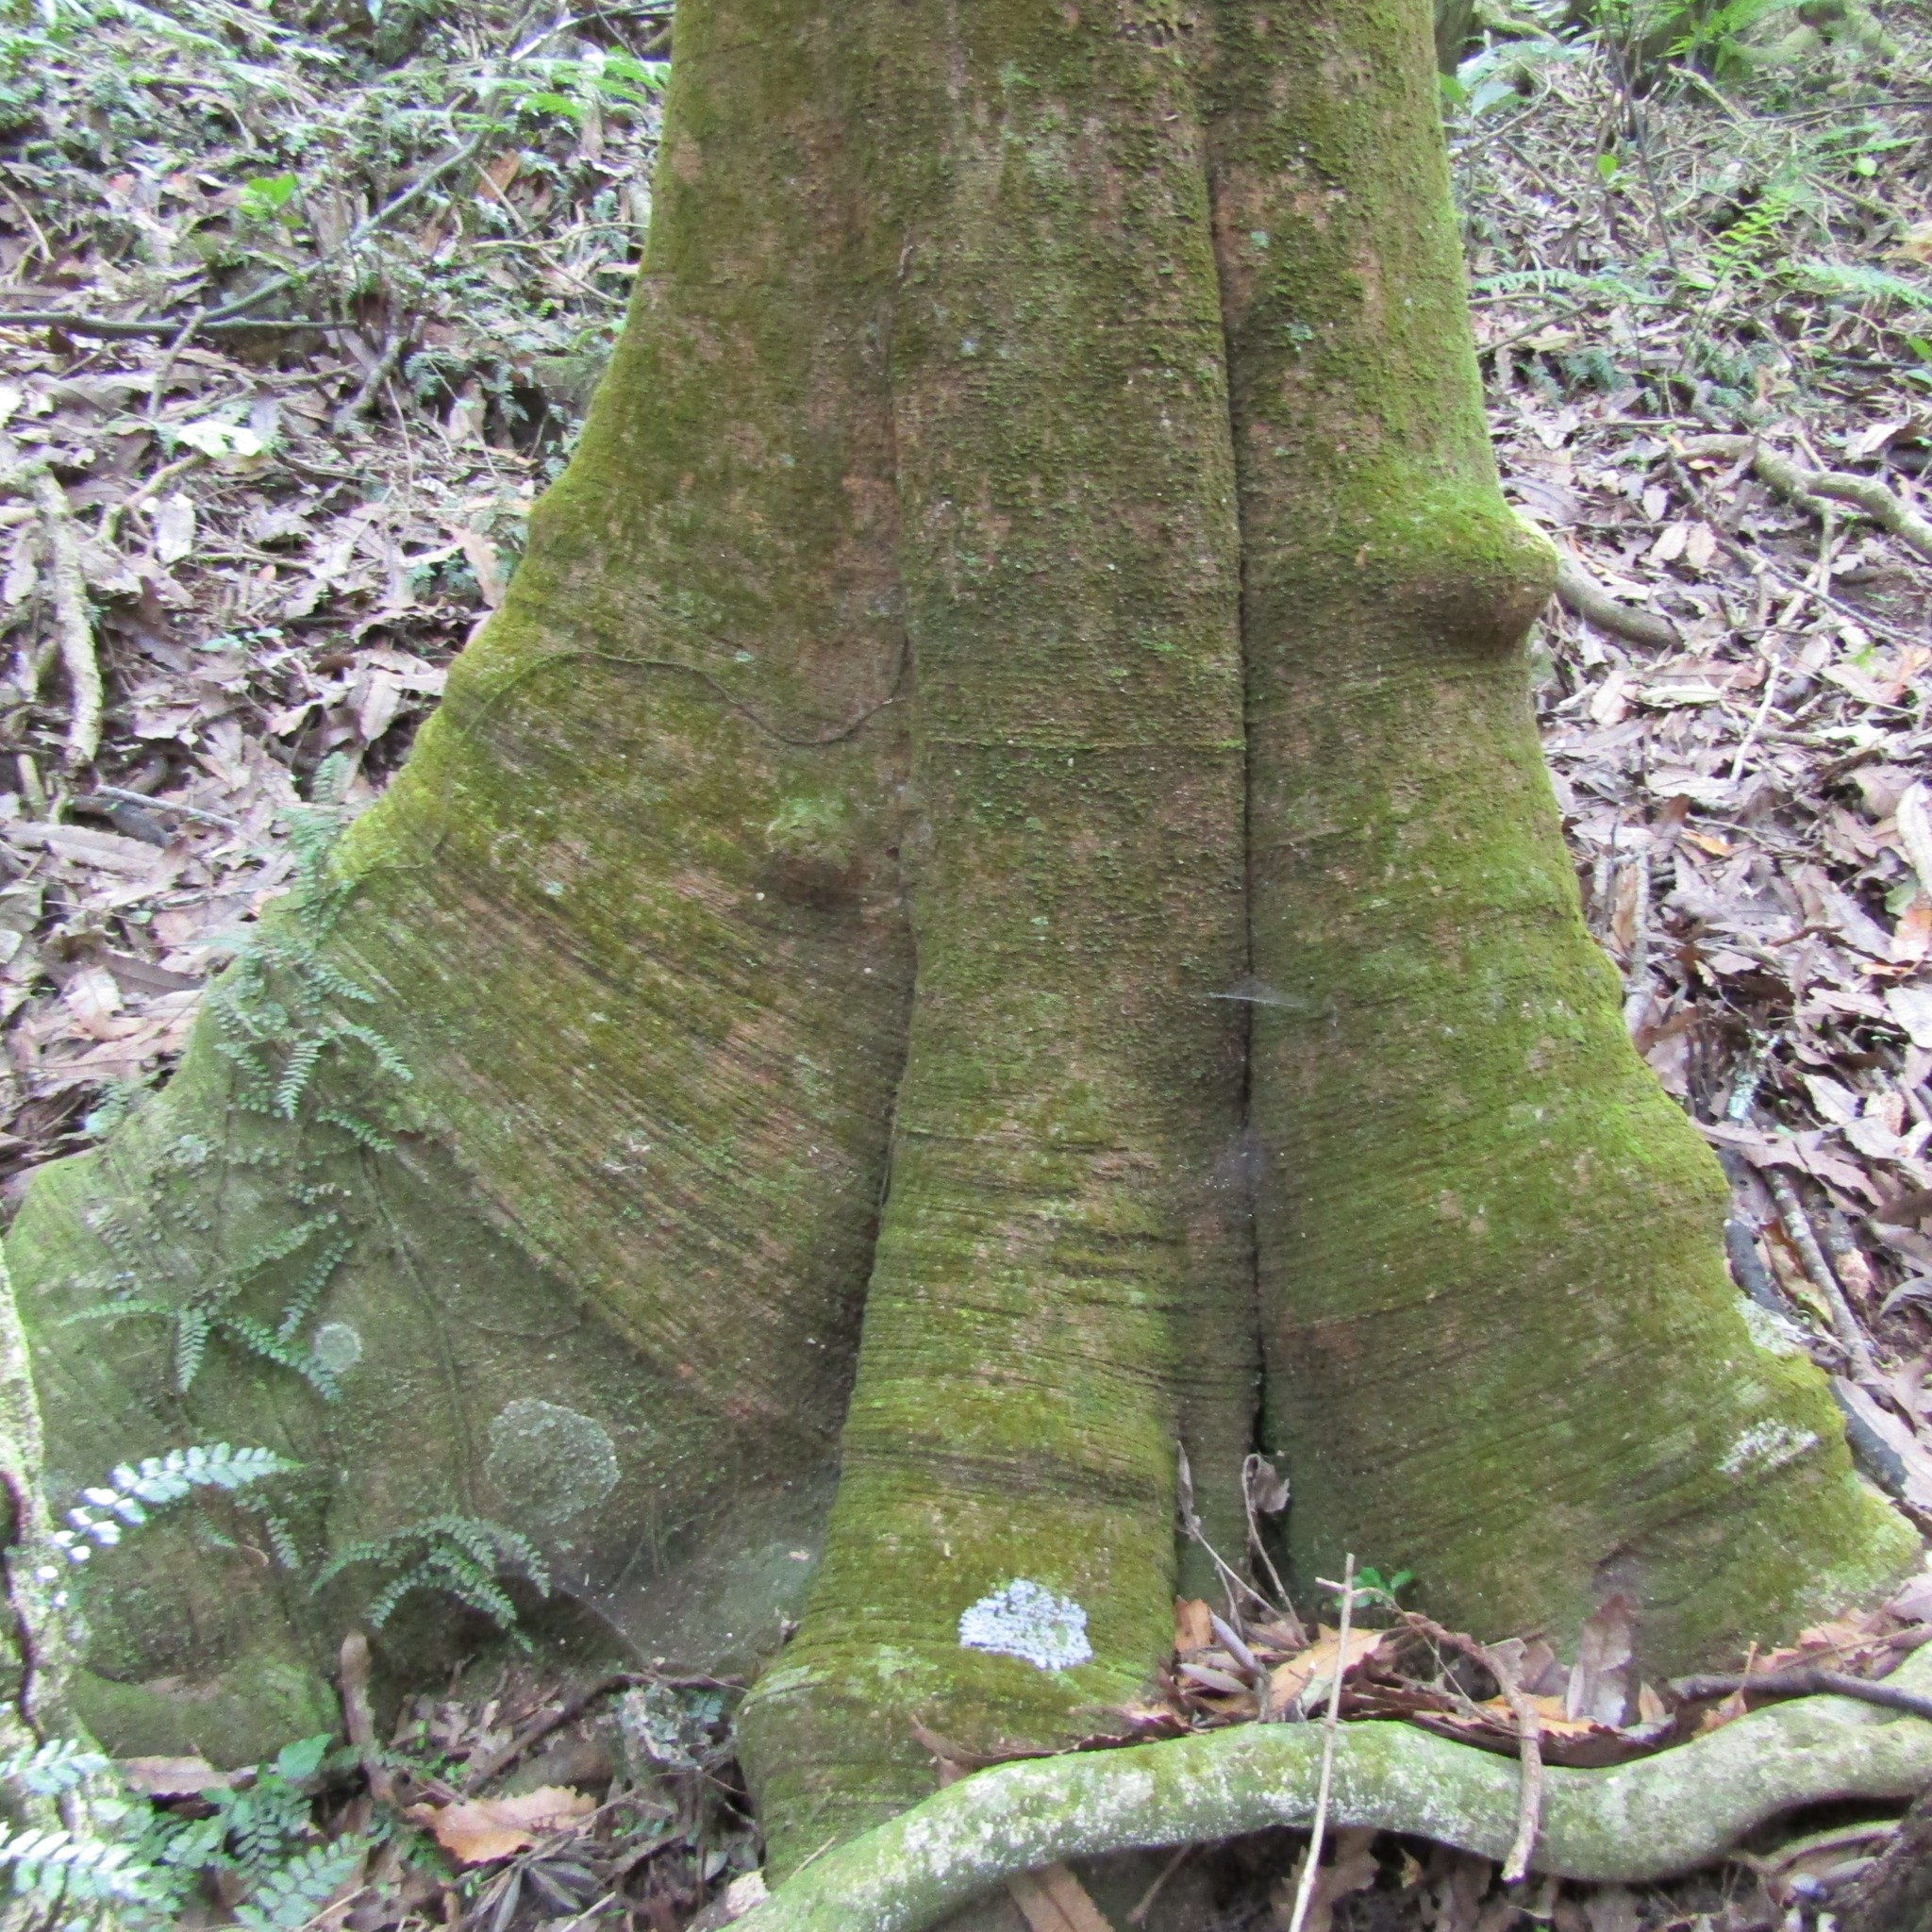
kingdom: Plantae
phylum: Tracheophyta
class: Magnoliopsida
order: Proteales
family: Proteaceae
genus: Knightia
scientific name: Knightia excelsa
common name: New zealand-honeysuckle
